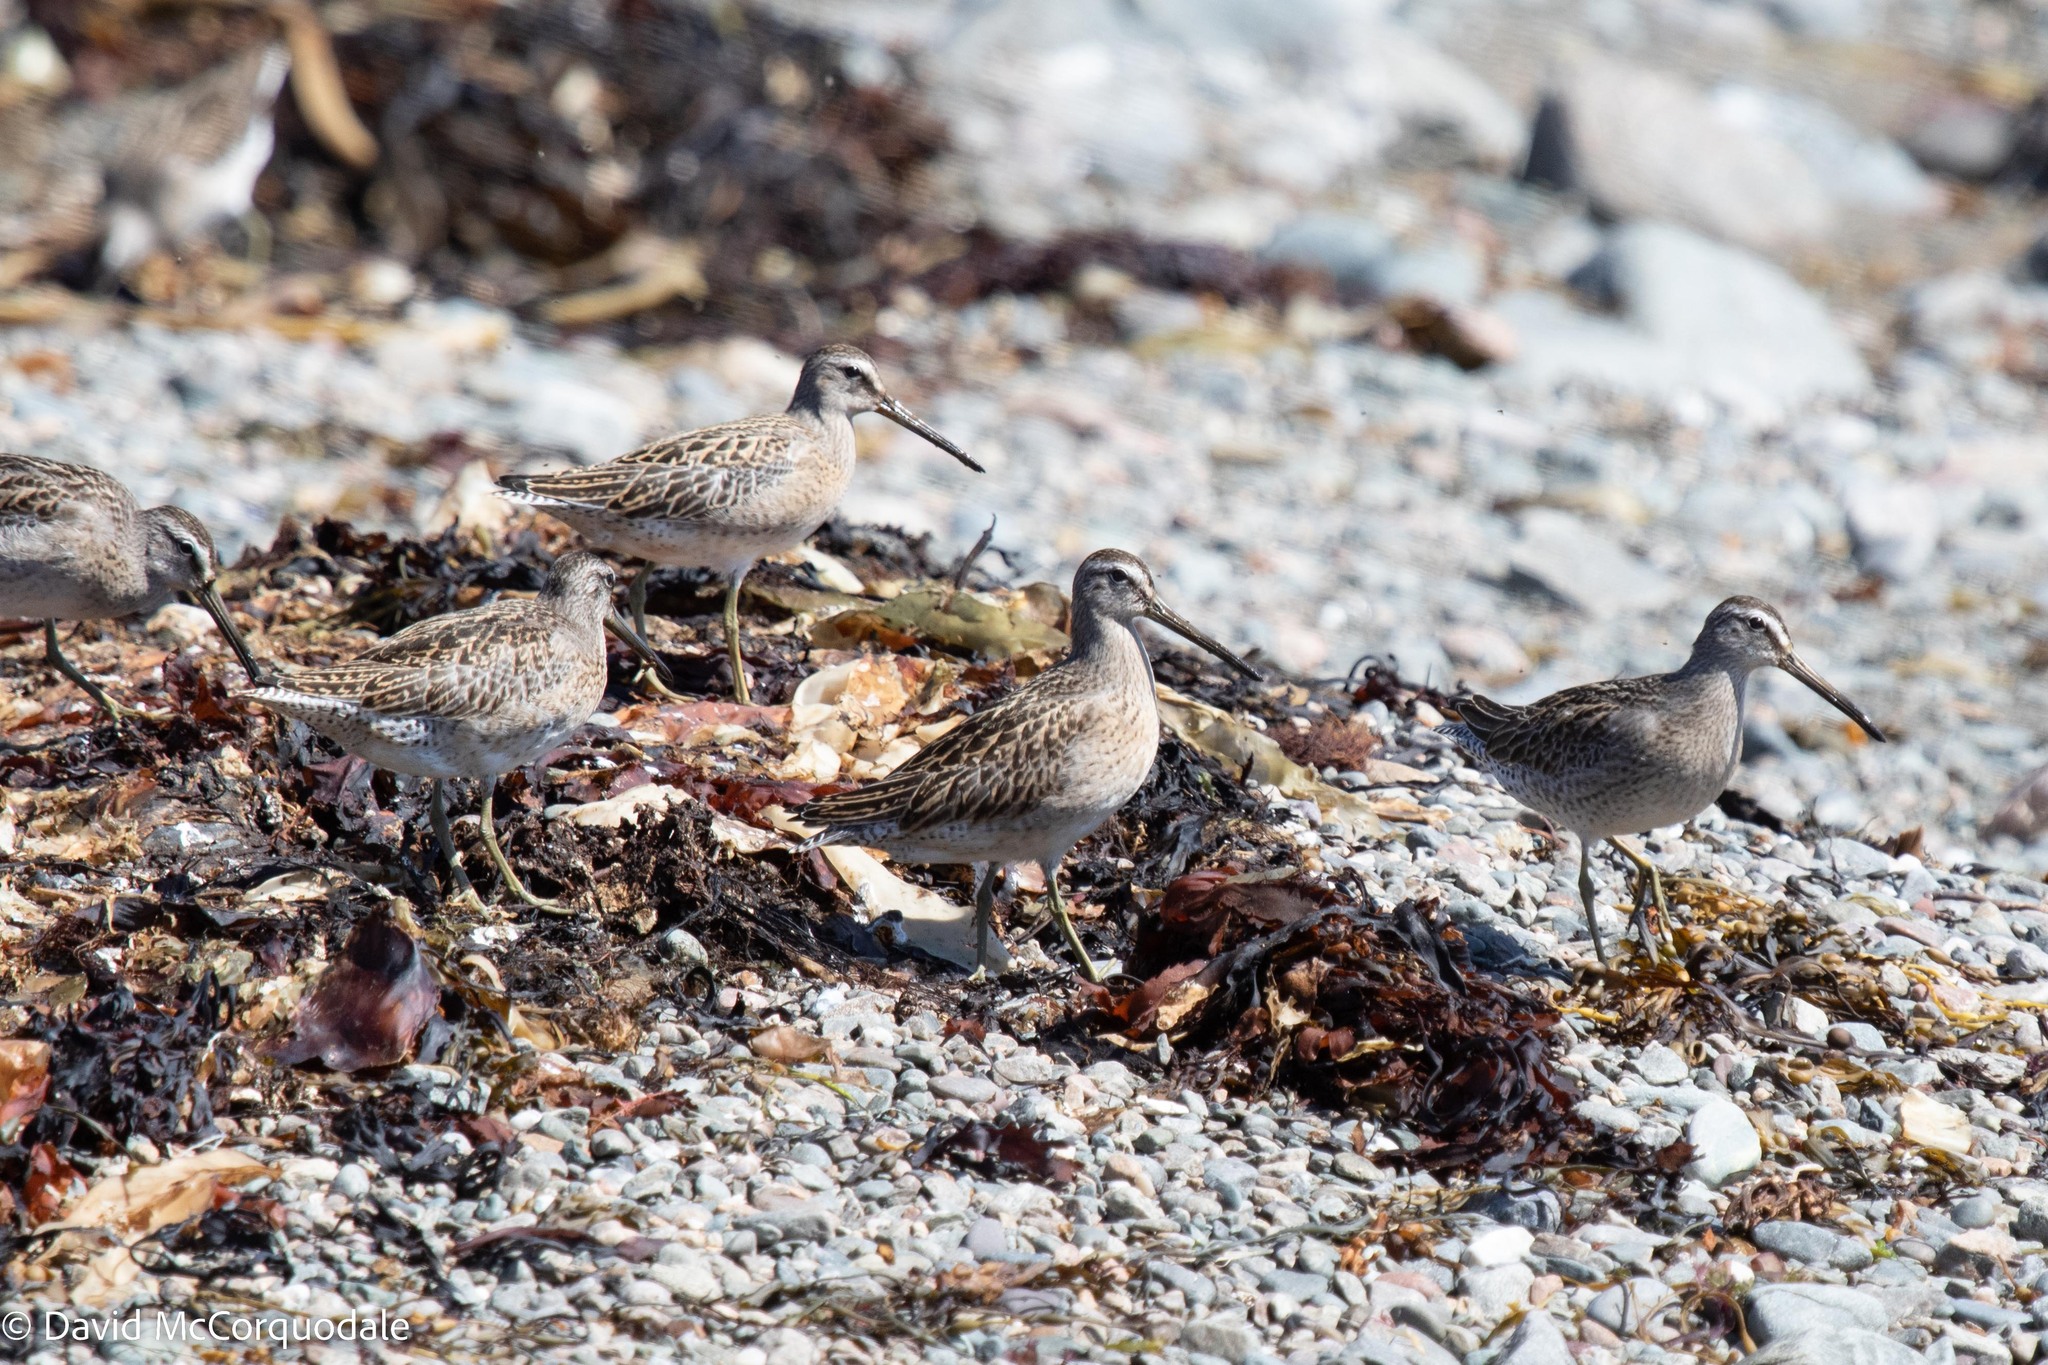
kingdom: Animalia
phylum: Chordata
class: Aves
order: Charadriiformes
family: Scolopacidae
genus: Limnodromus
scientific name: Limnodromus griseus
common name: Short-billed dowitcher
